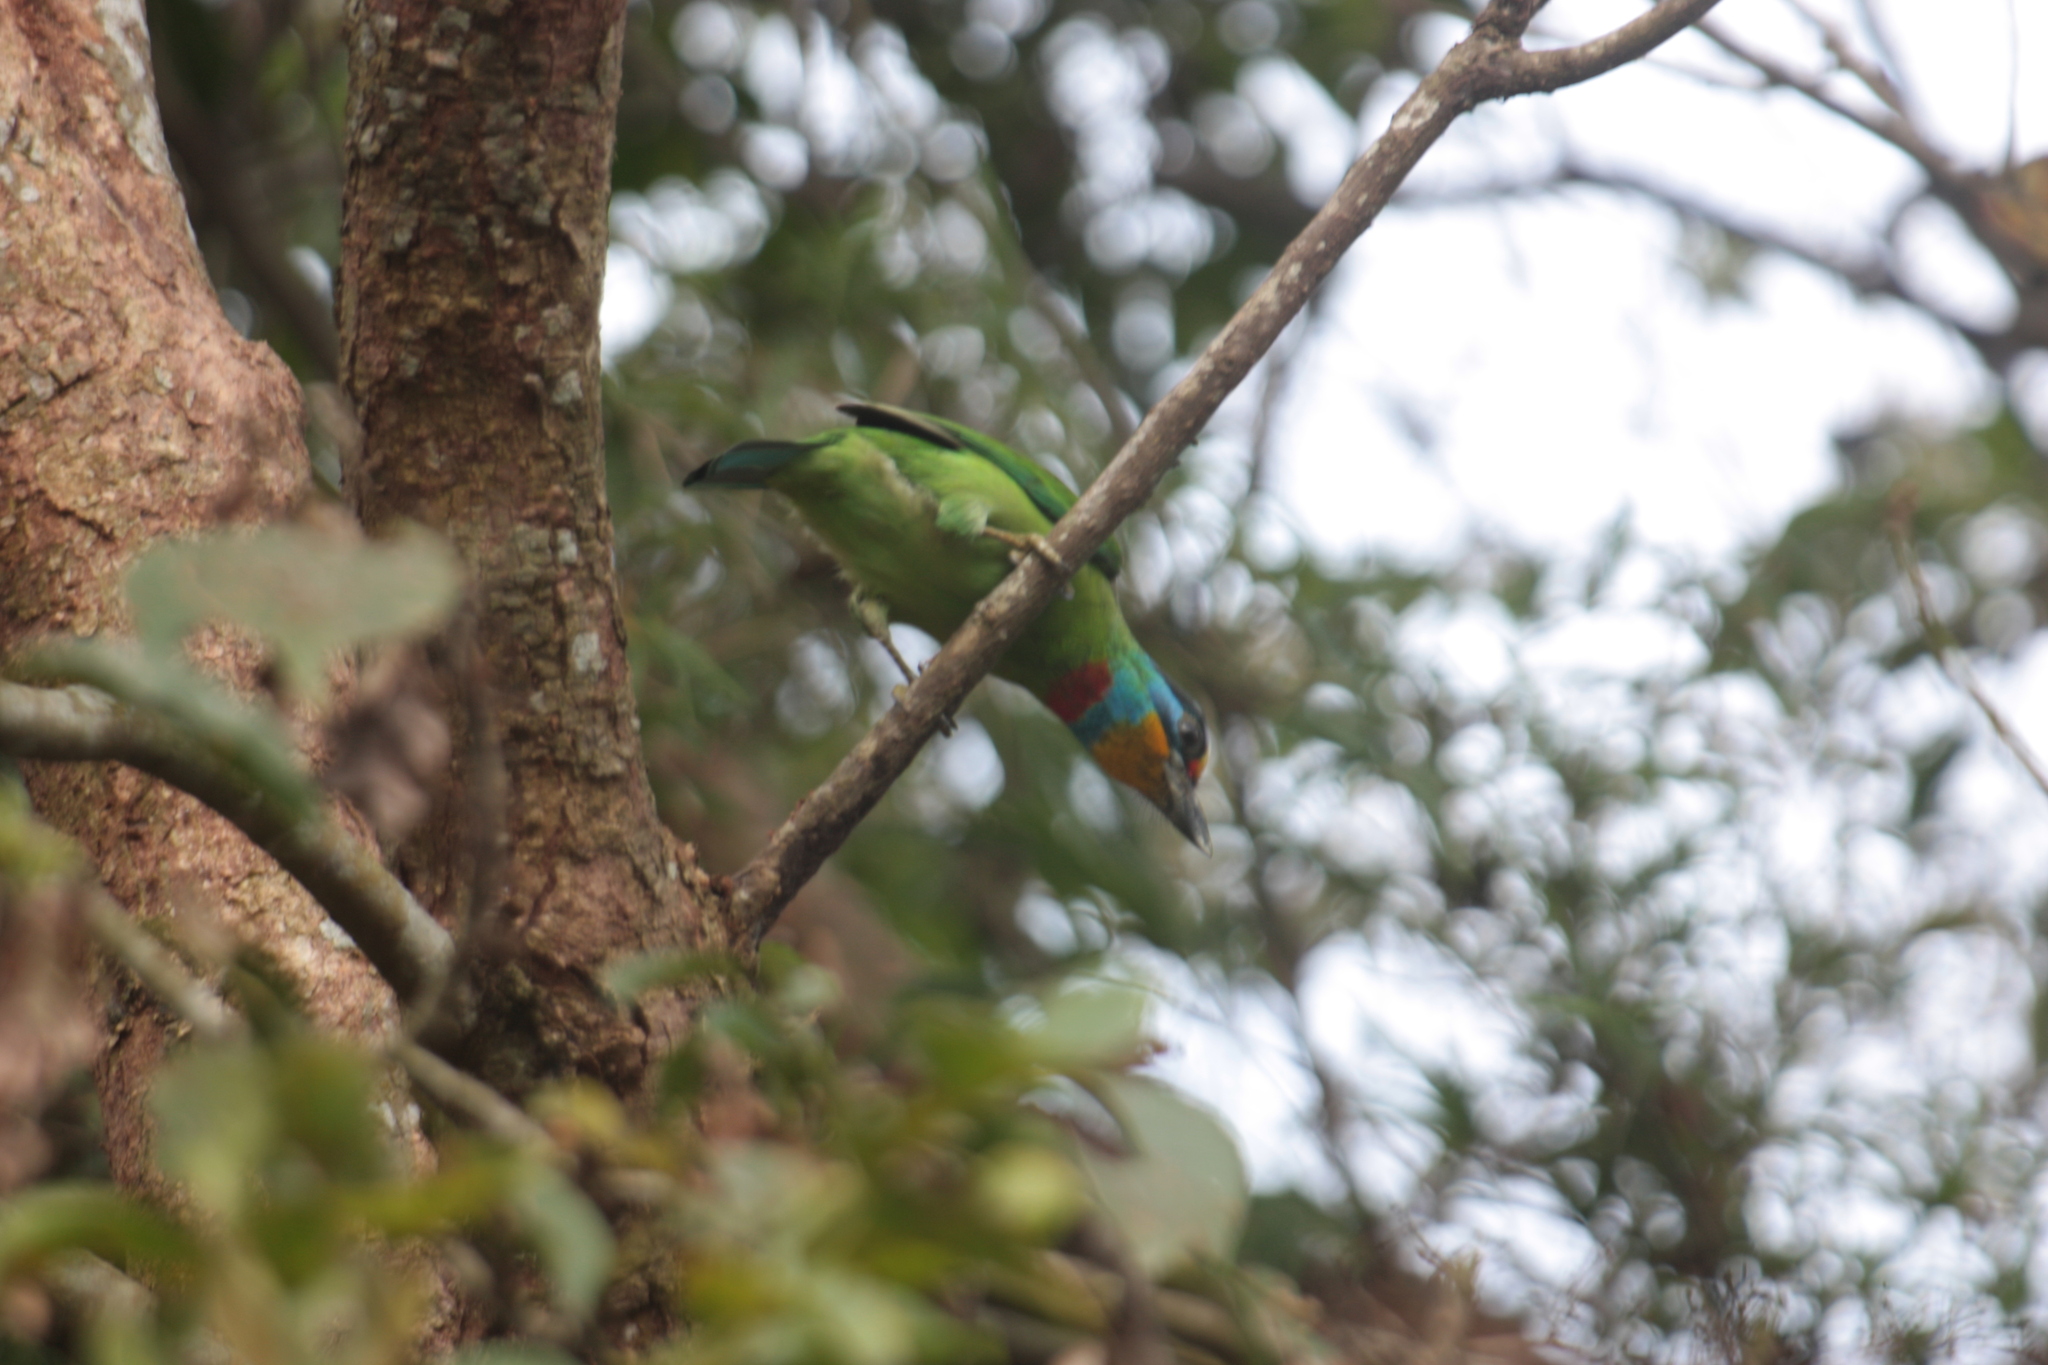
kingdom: Animalia
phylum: Chordata
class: Aves
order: Piciformes
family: Megalaimidae
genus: Psilopogon
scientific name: Psilopogon nuchalis
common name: Taiwan barbet
